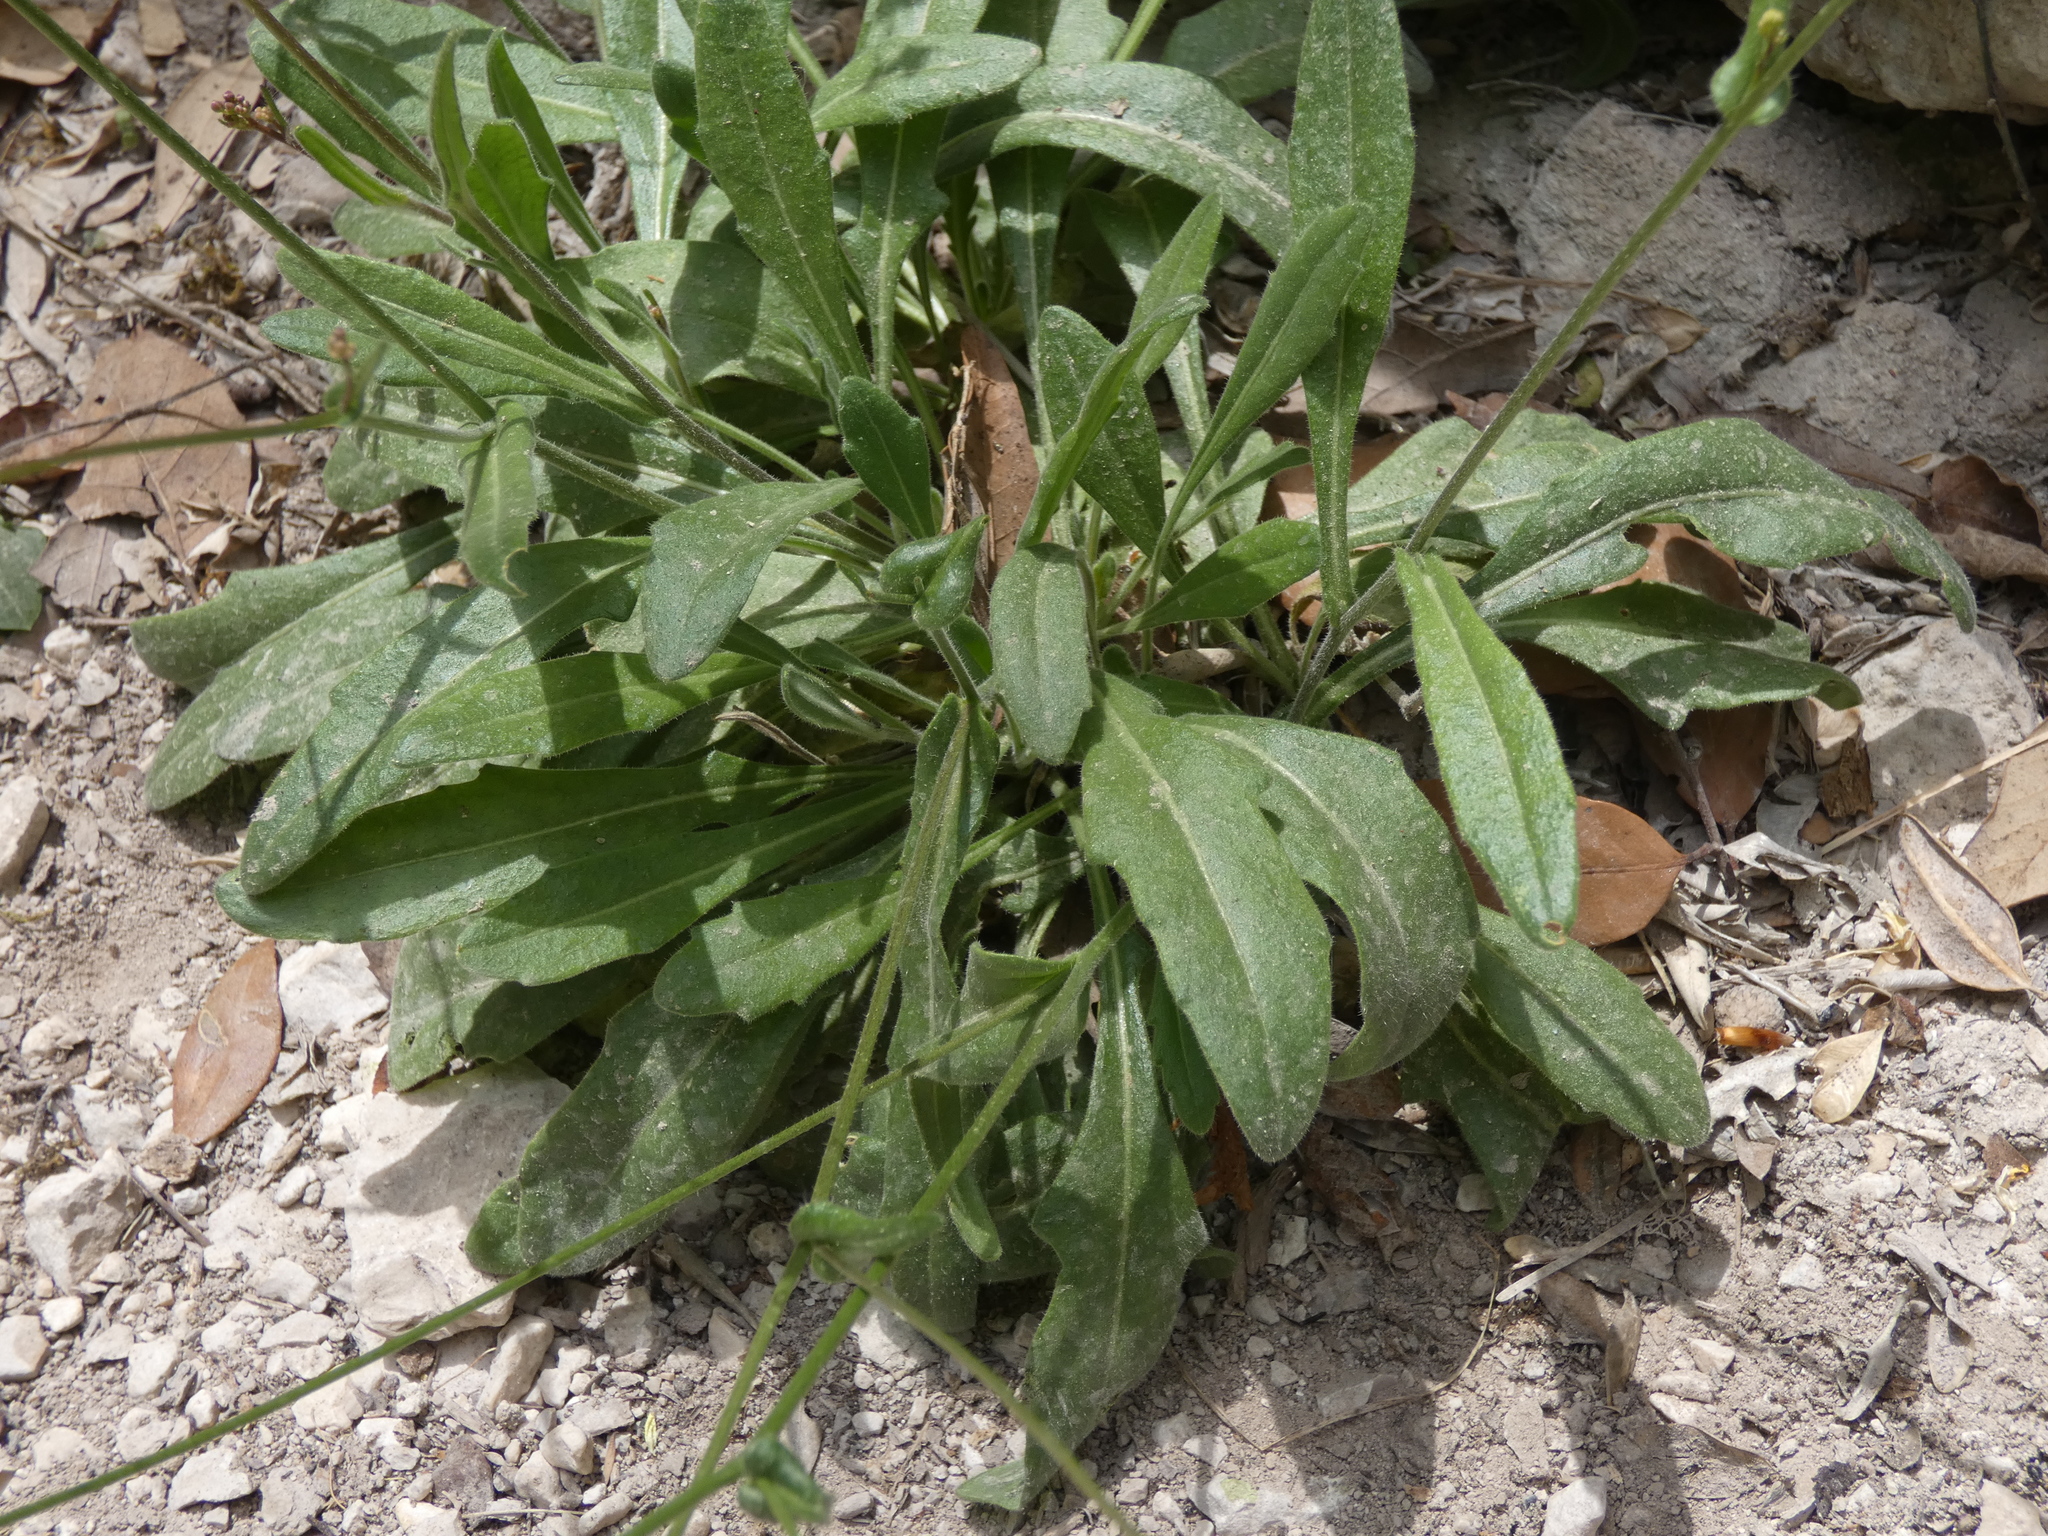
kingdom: Plantae
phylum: Tracheophyta
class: Magnoliopsida
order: Brassicales
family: Brassicaceae
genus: Biscutella
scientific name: Biscutella laevigata
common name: Buckler mustard
